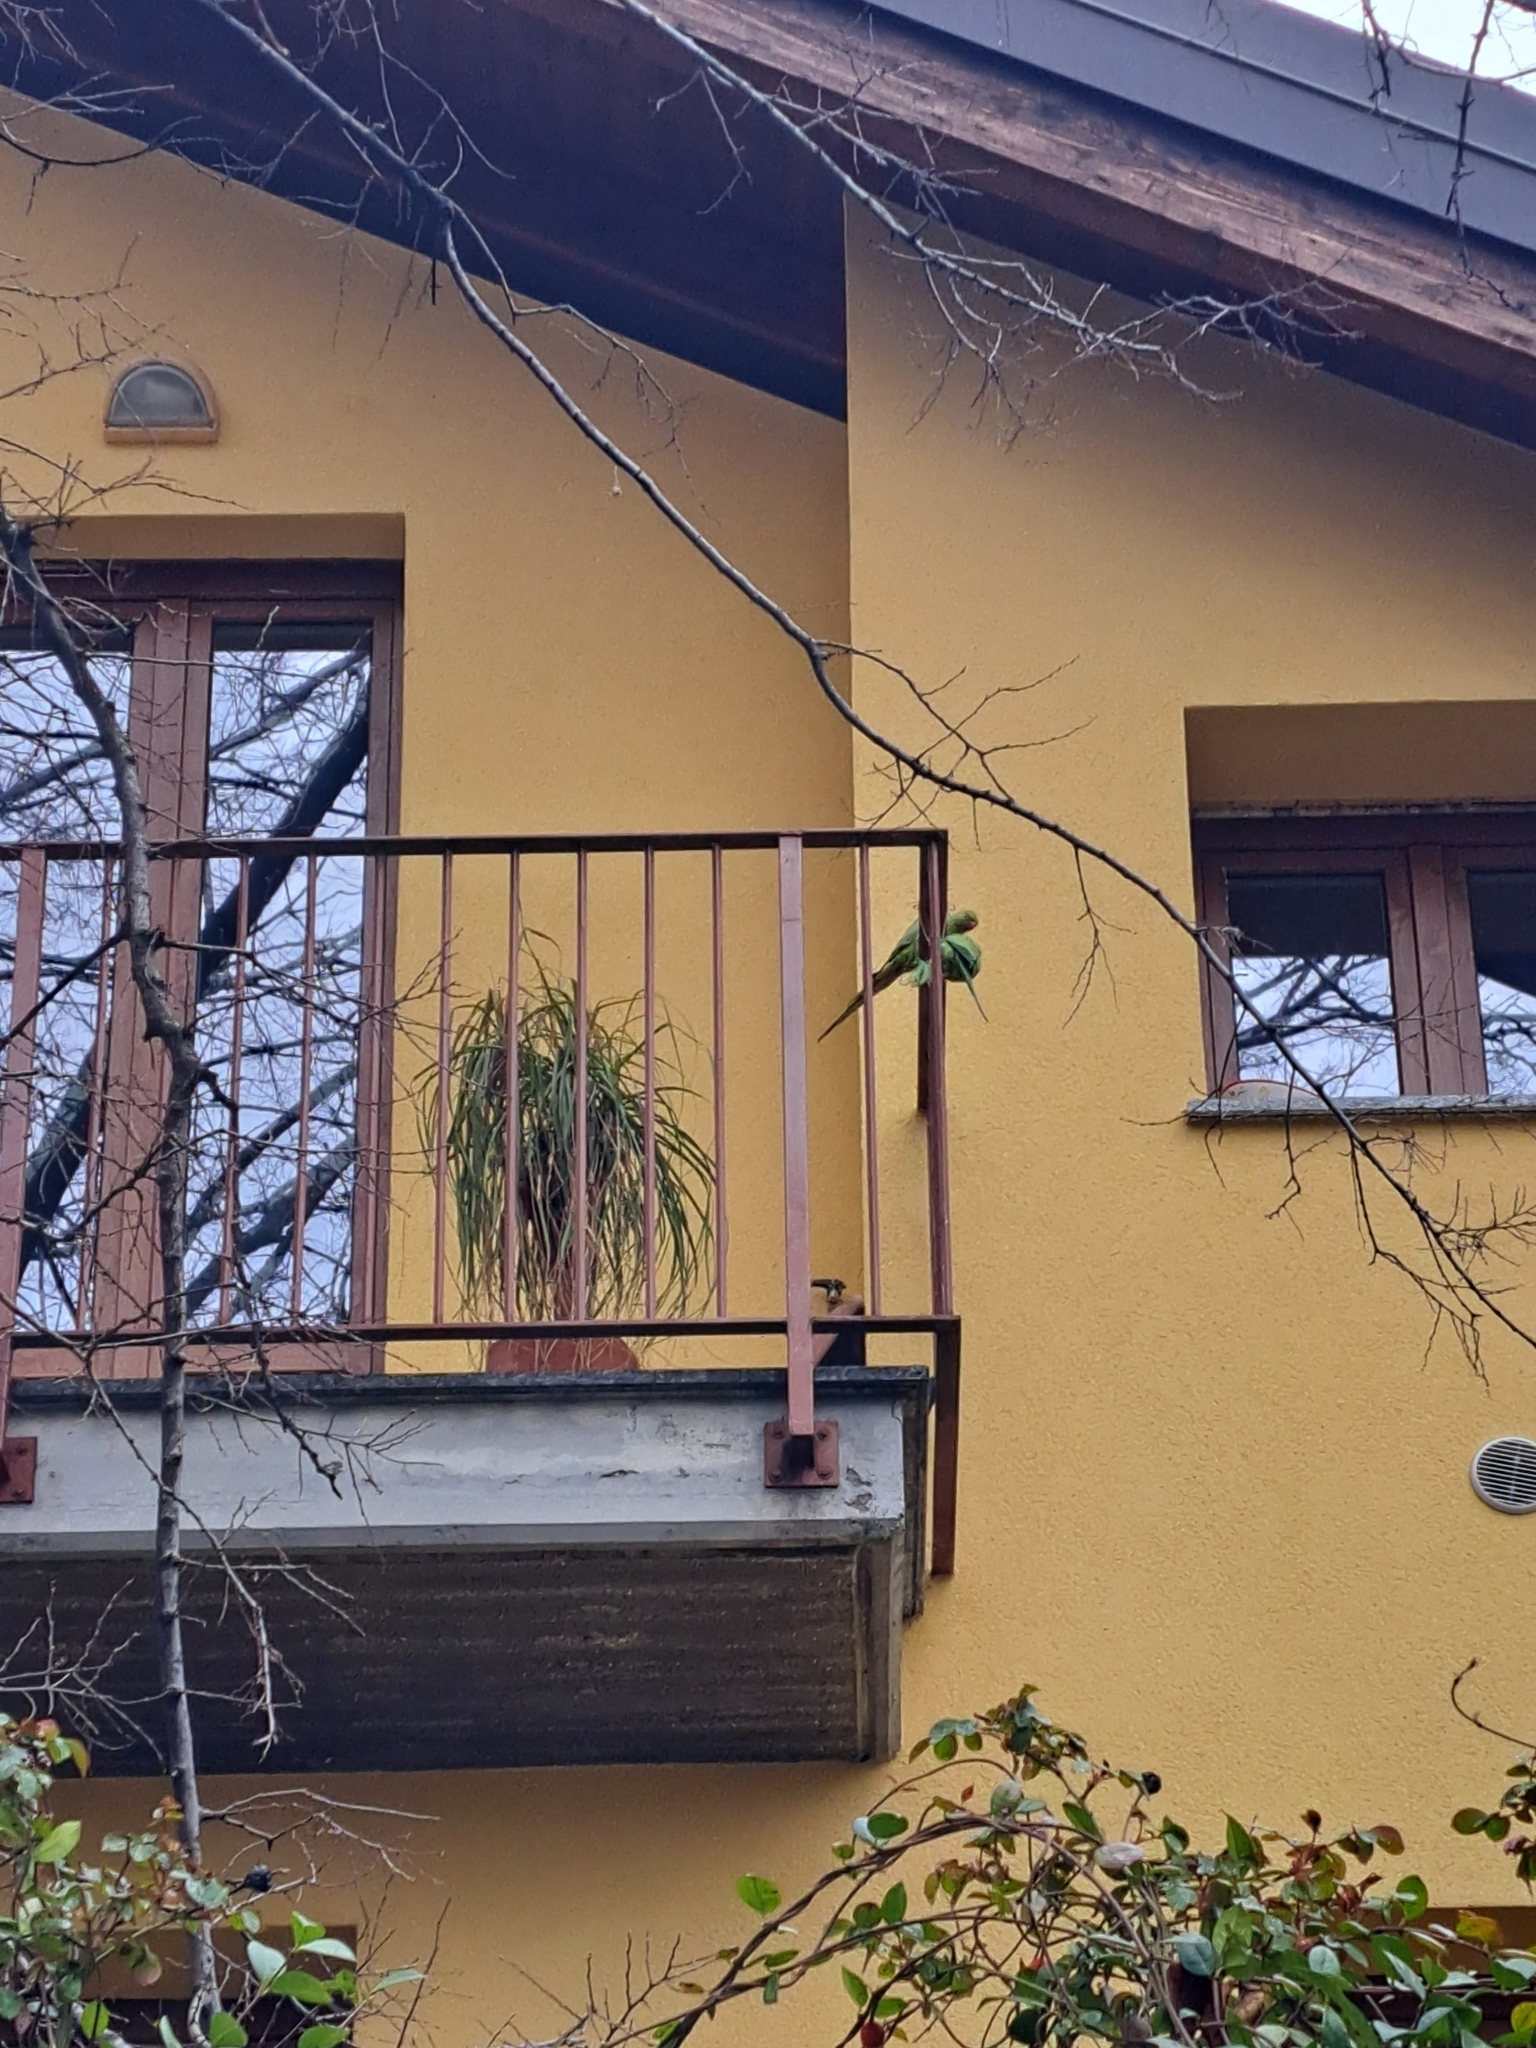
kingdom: Animalia
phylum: Chordata
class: Aves
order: Psittaciformes
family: Psittacidae
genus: Psittacula
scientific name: Psittacula krameri
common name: Rose-ringed parakeet
